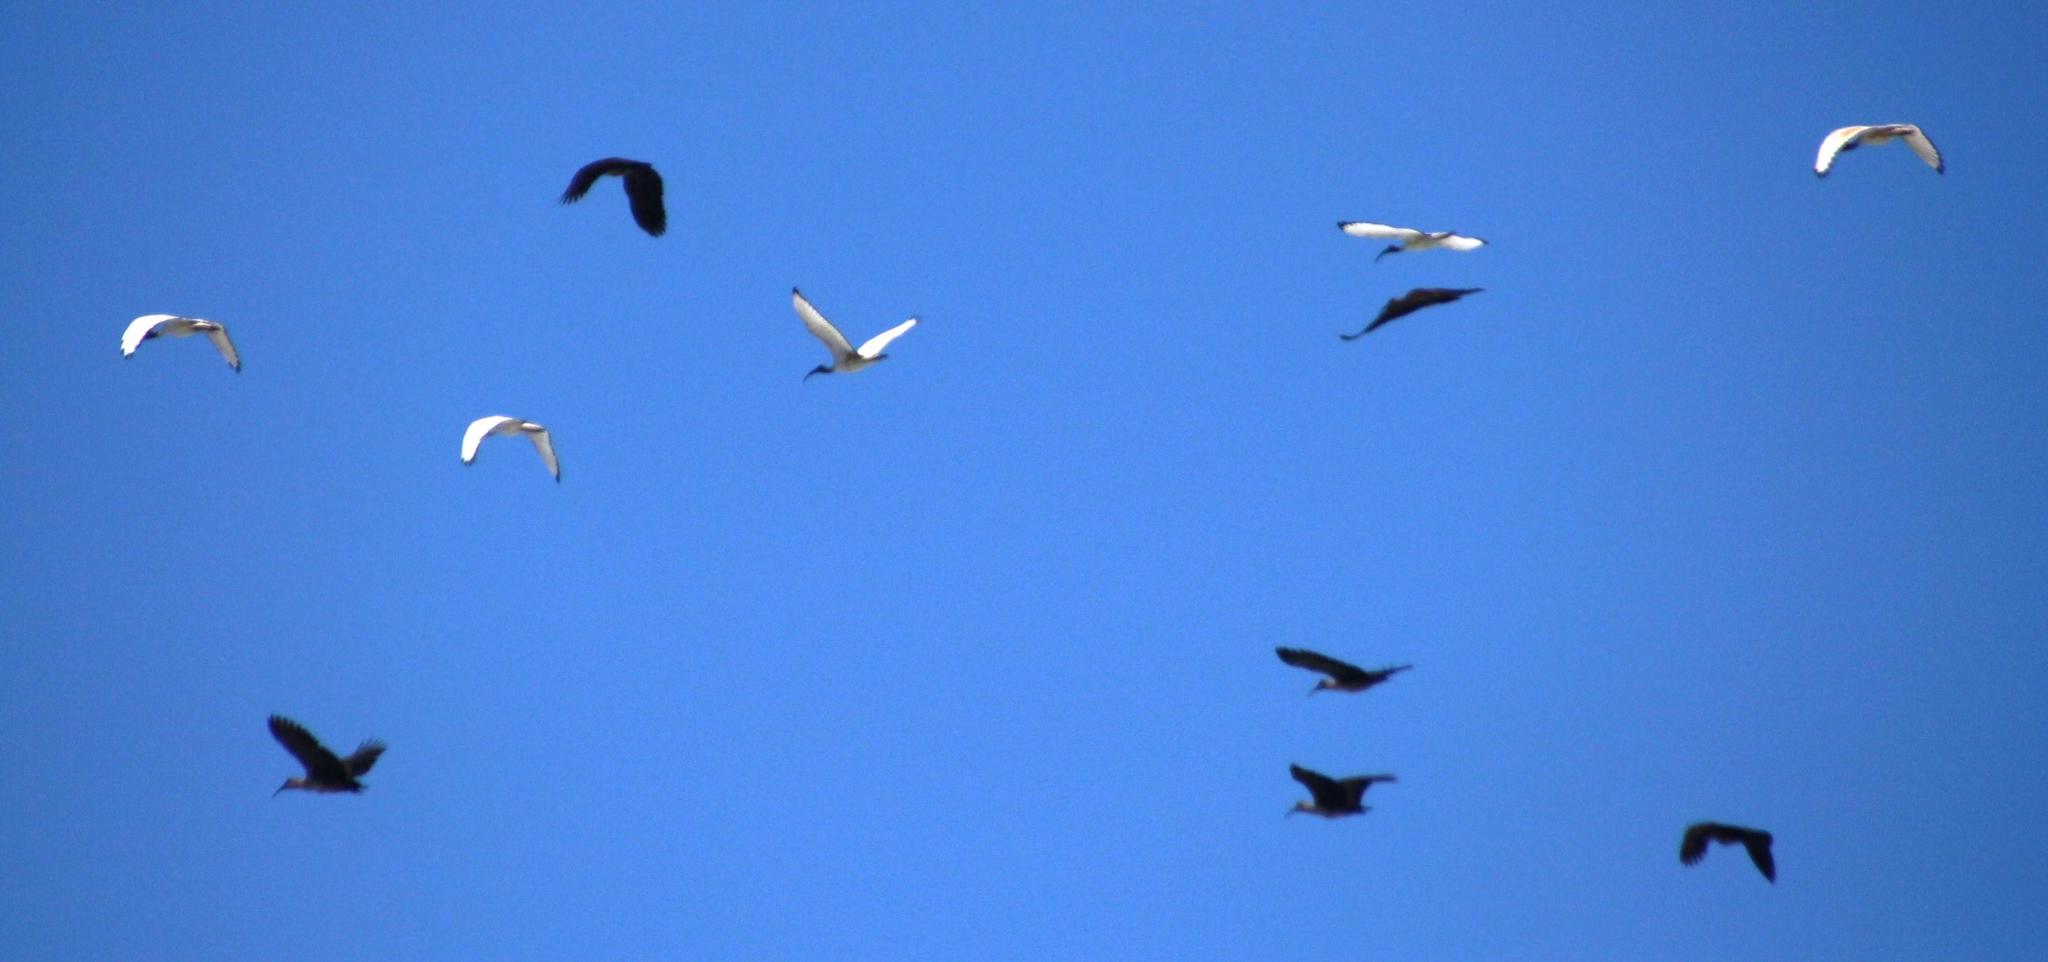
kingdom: Animalia
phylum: Chordata
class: Aves
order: Pelecaniformes
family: Threskiornithidae
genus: Bostrychia
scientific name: Bostrychia hagedash
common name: Hadada ibis
